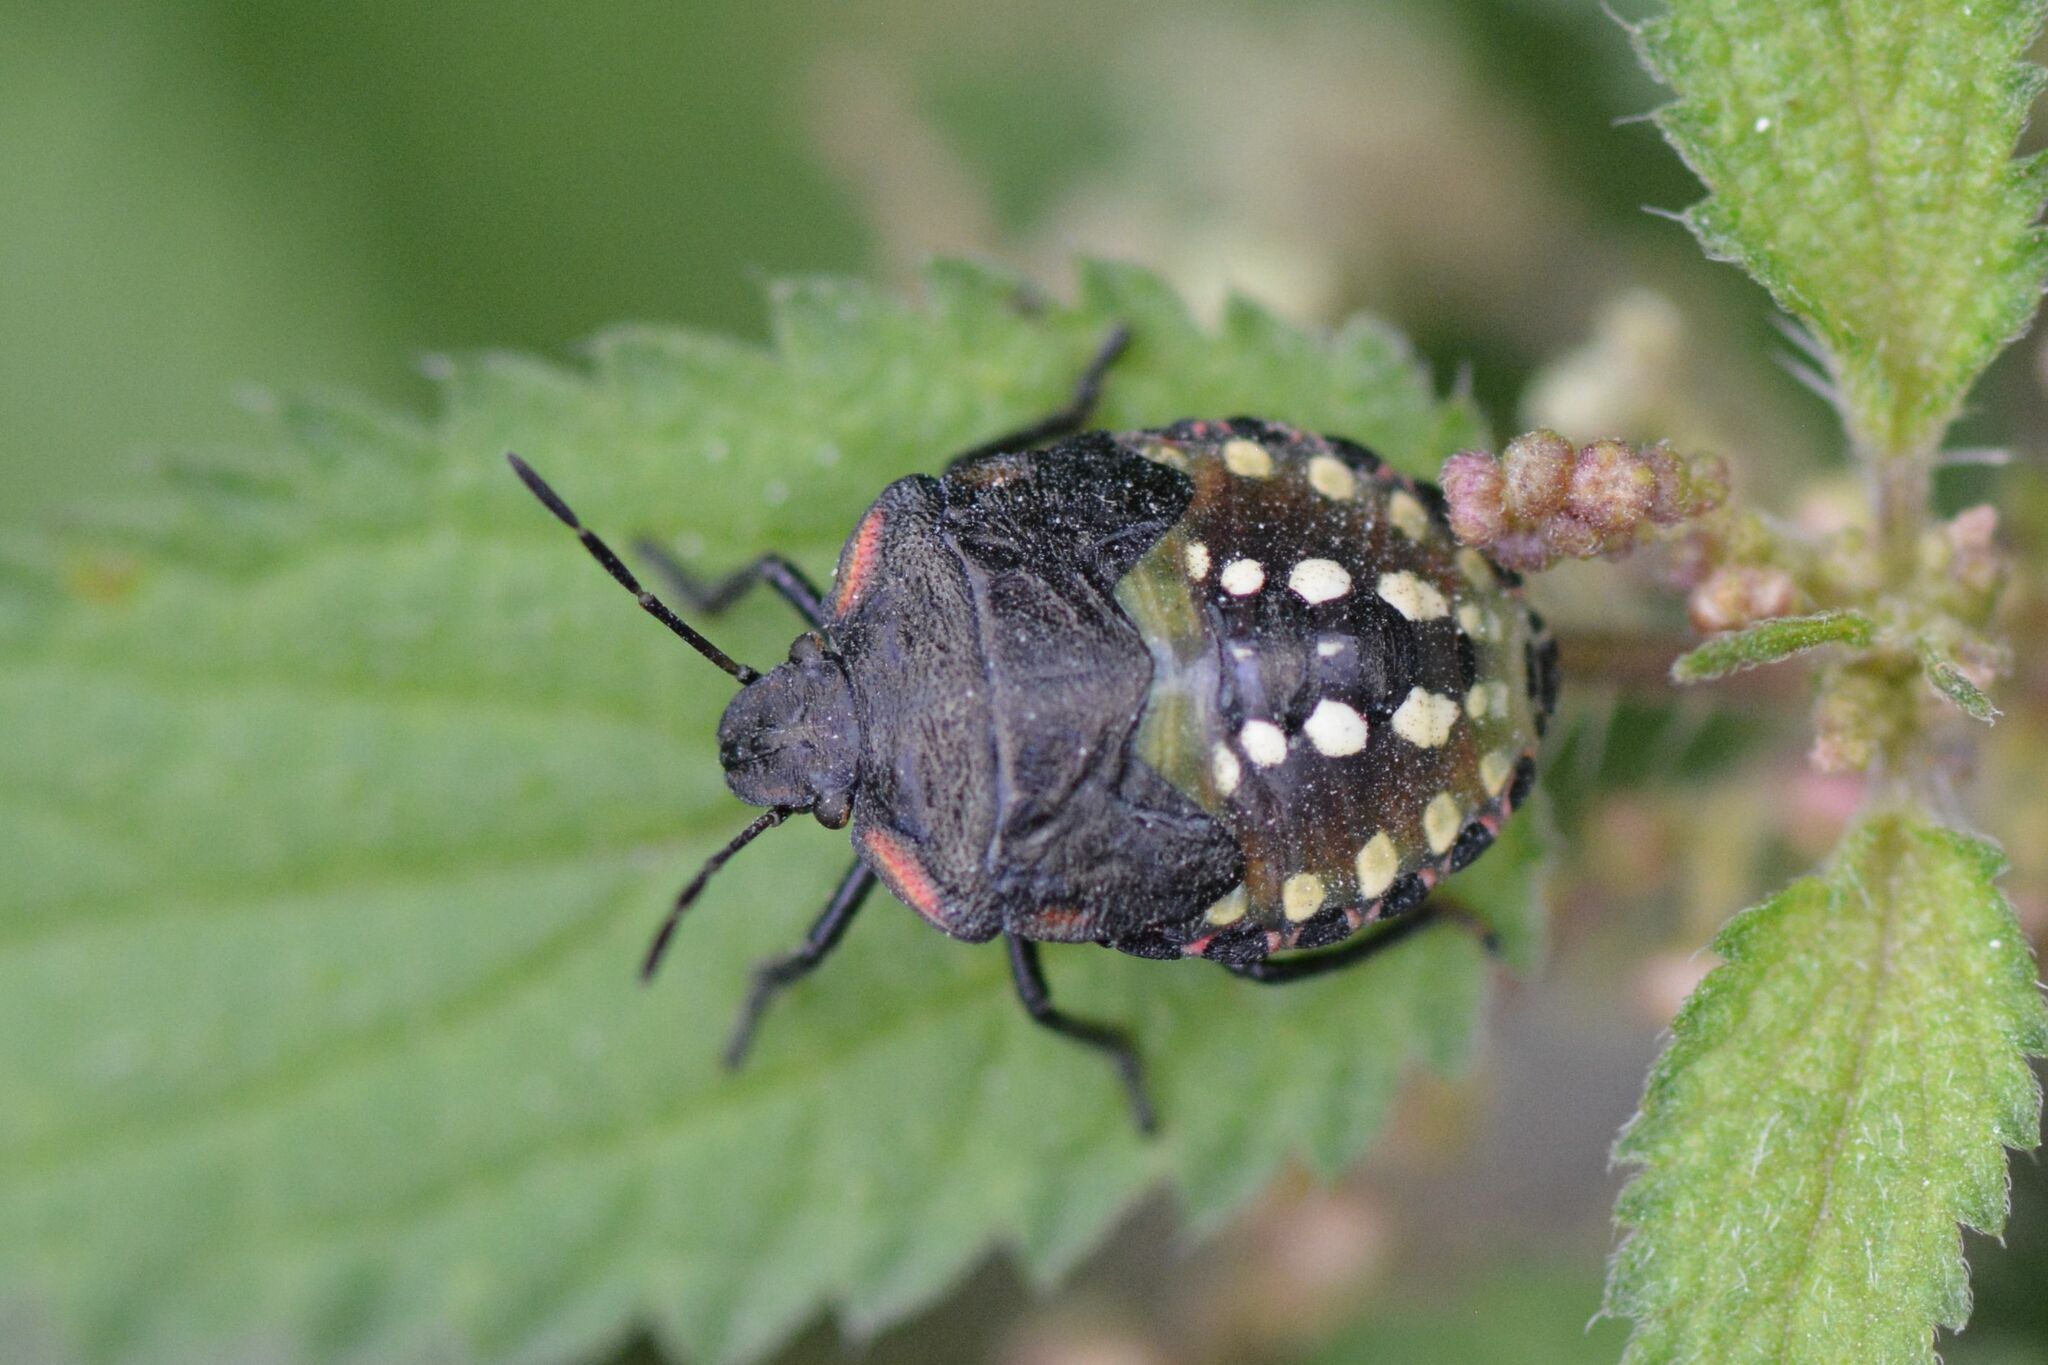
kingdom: Animalia
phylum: Arthropoda
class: Insecta
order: Hemiptera
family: Pentatomidae
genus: Nezara
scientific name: Nezara viridula
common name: Southern green stink bug
